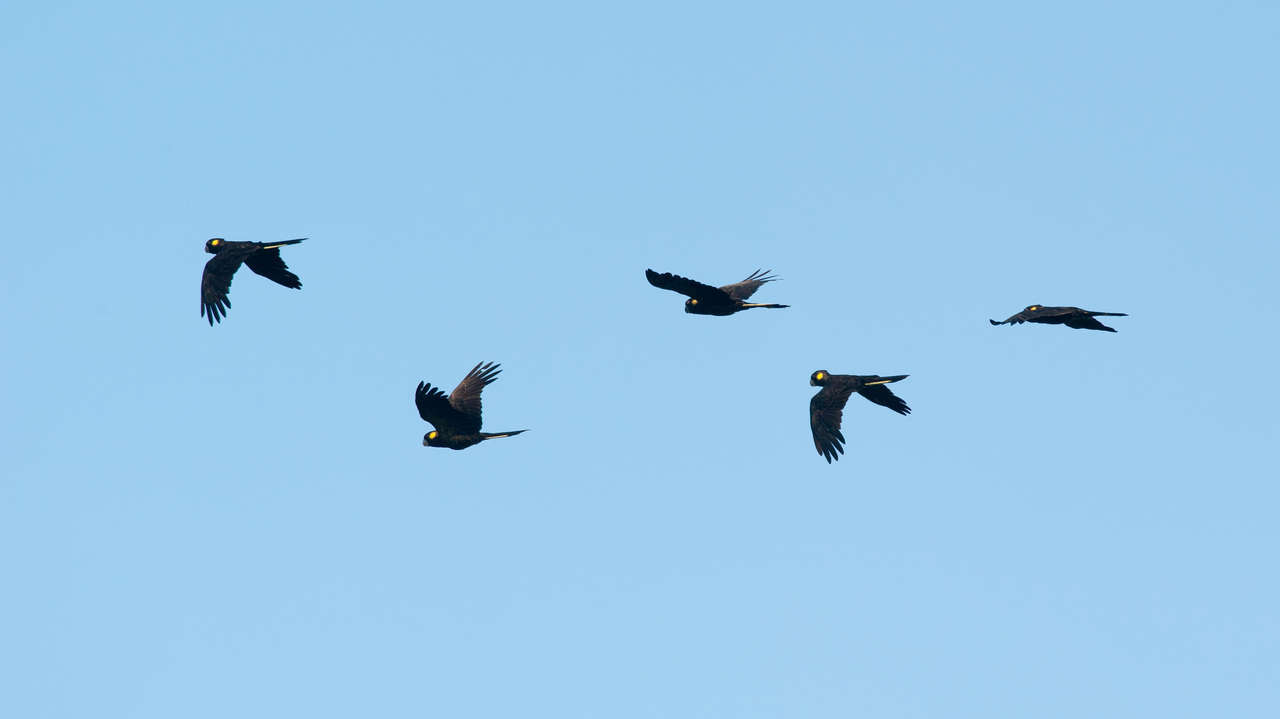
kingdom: Animalia
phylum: Chordata
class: Aves
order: Psittaciformes
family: Cacatuidae
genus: Zanda
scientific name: Zanda funerea
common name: Yellow-tailed black-cockatoo
